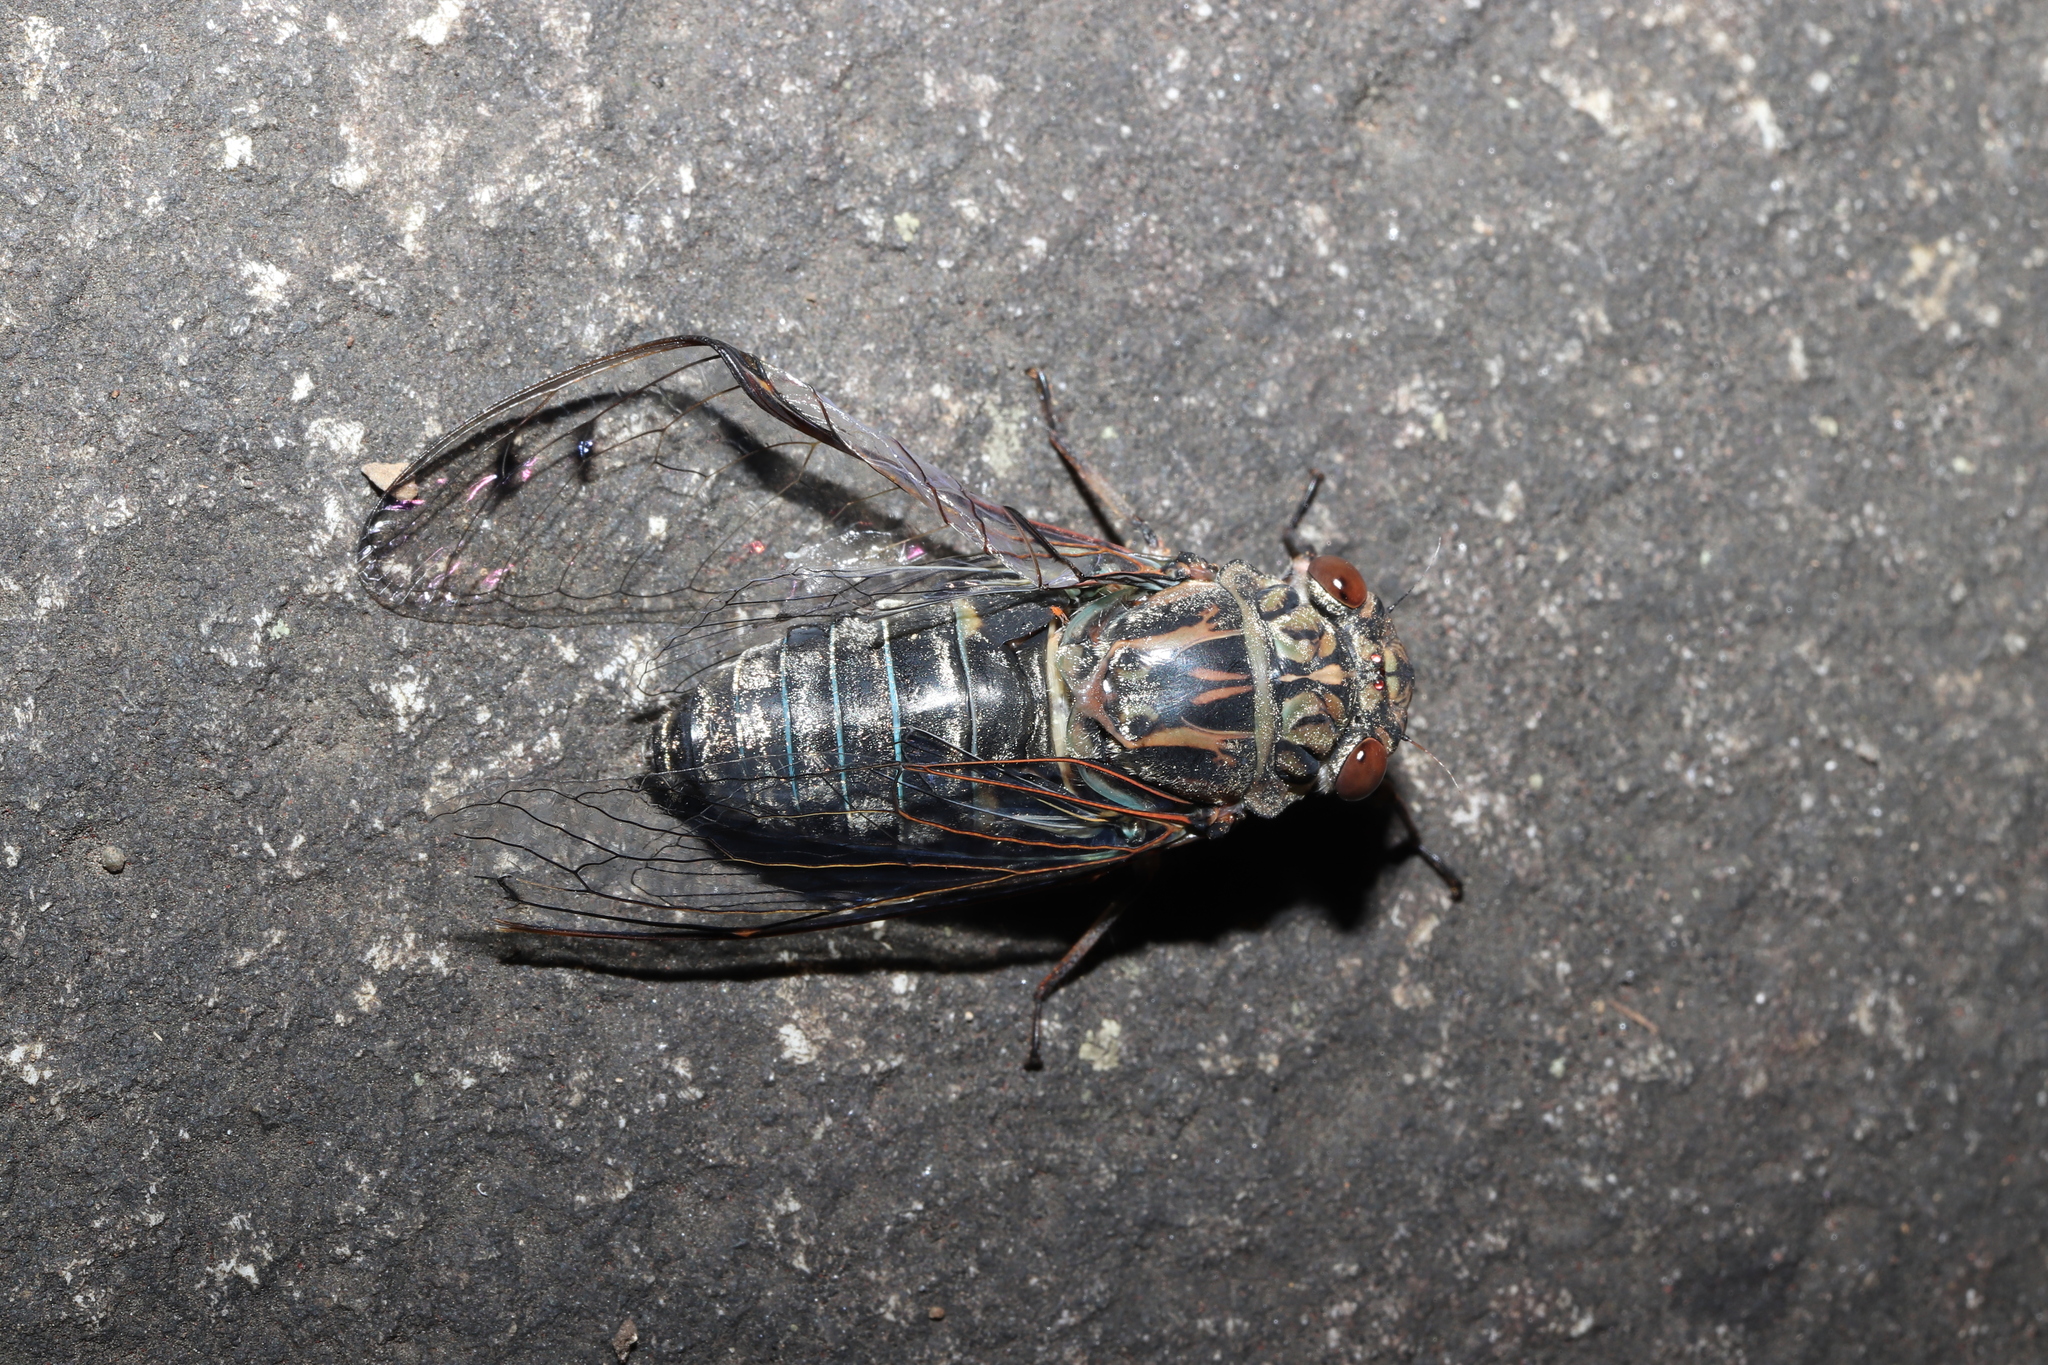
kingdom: Animalia
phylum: Arthropoda
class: Insecta
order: Hemiptera
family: Cicadidae
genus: Meimuna
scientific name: Meimuna opalifera
